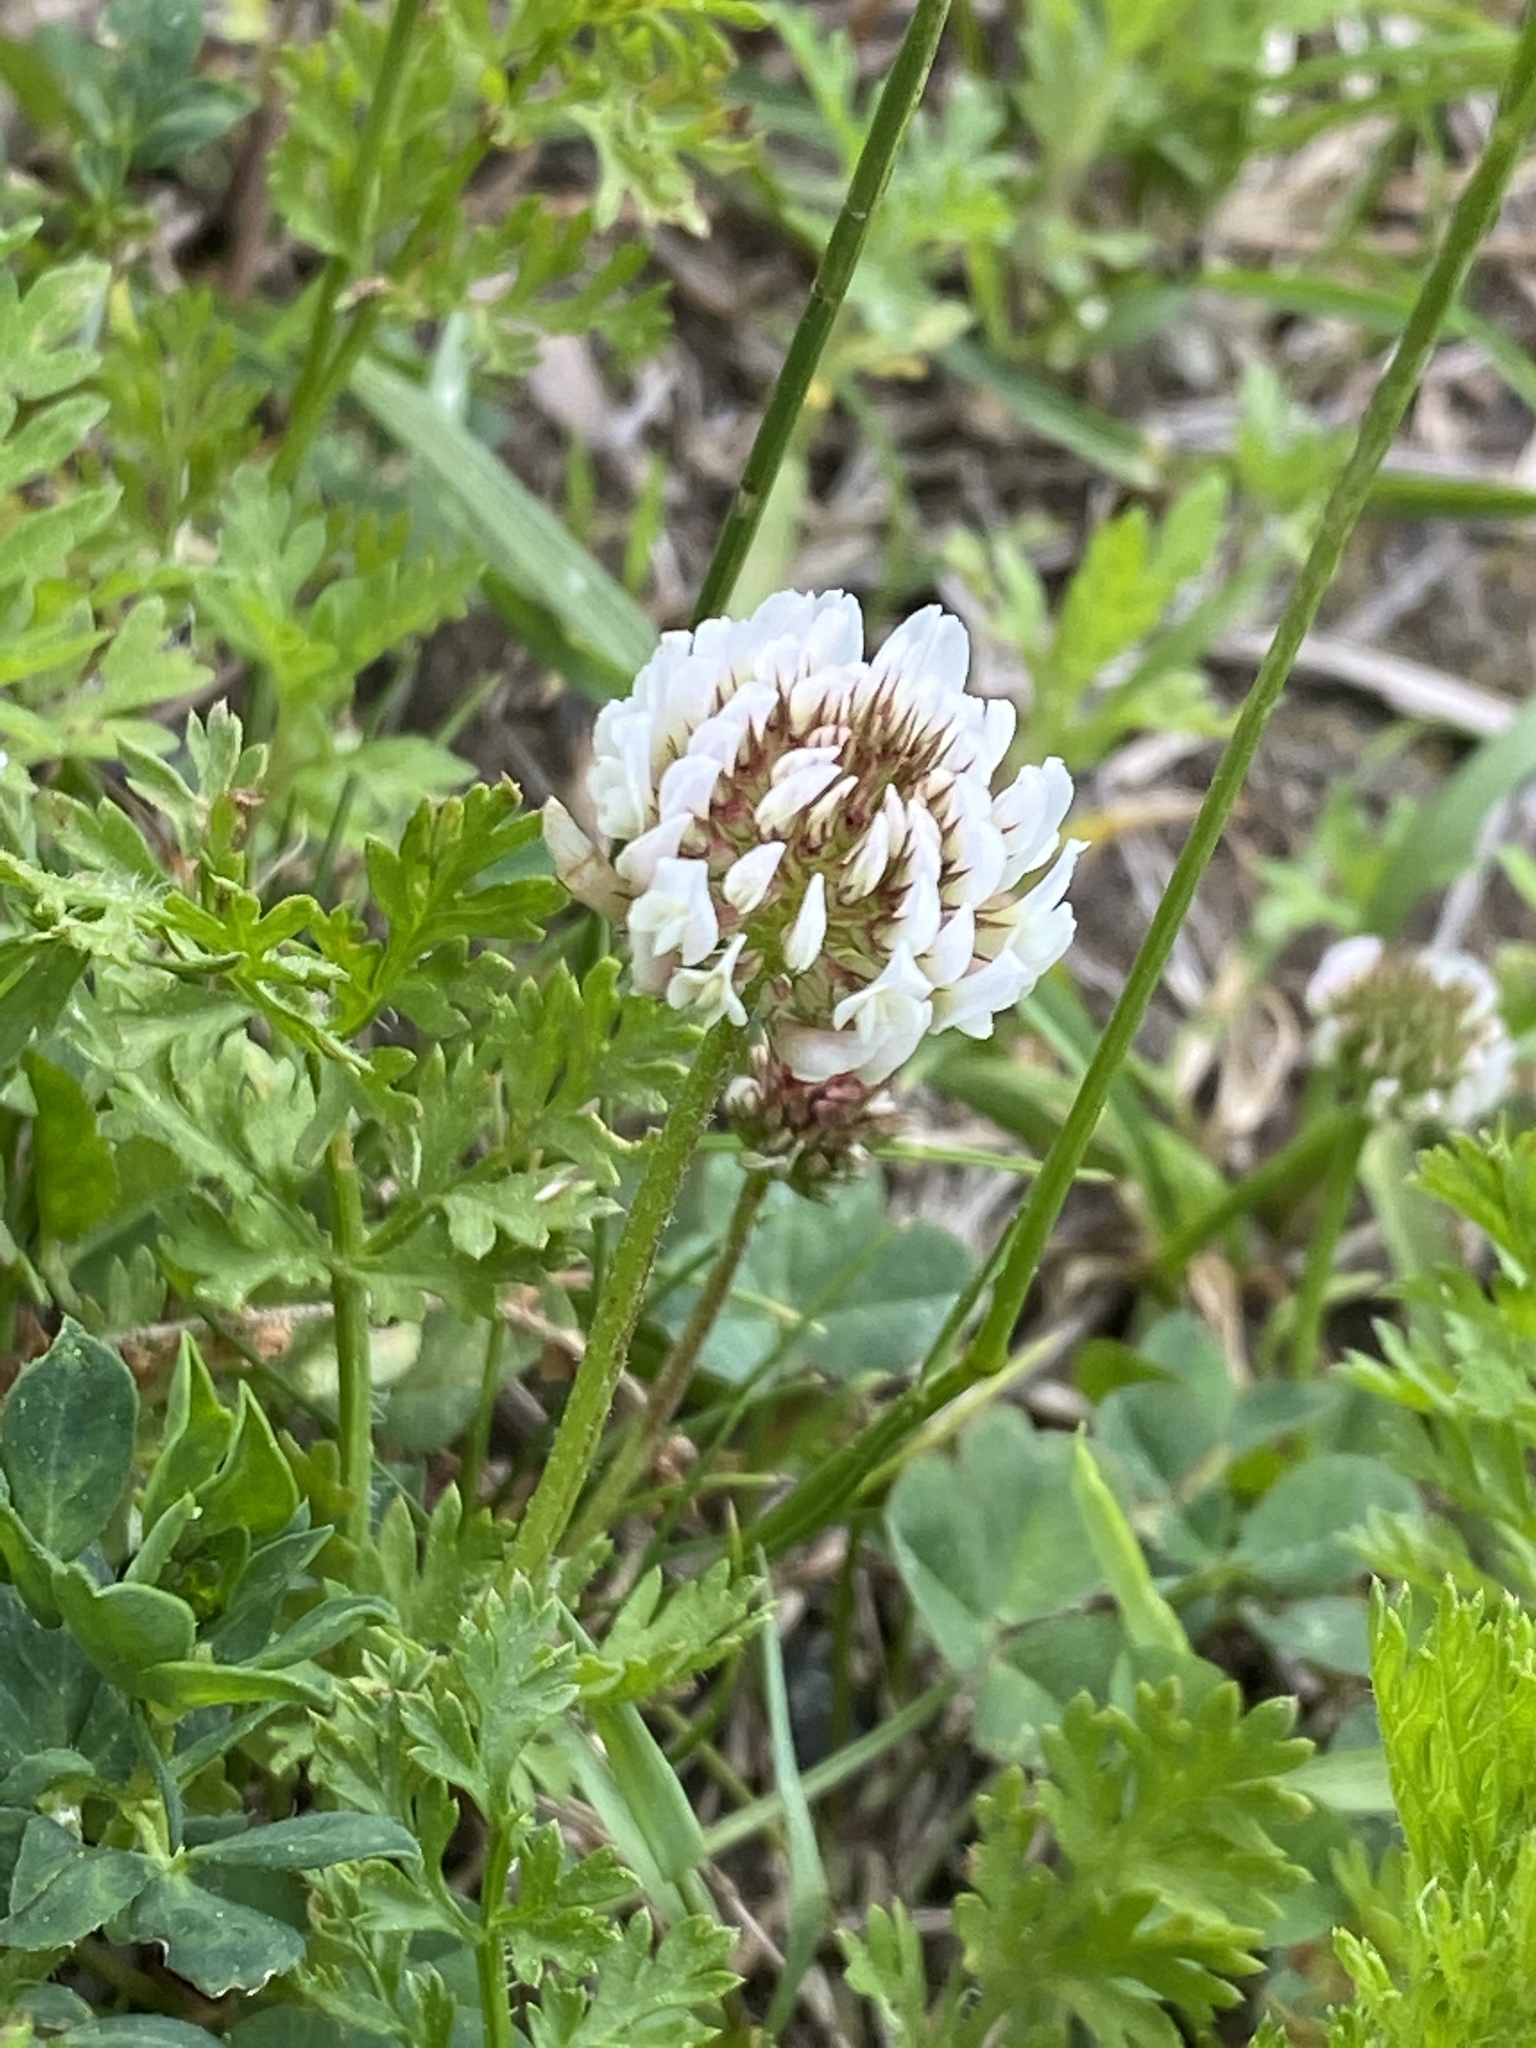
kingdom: Plantae
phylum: Tracheophyta
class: Magnoliopsida
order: Fabales
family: Fabaceae
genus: Trifolium
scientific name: Trifolium repens
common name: White clover
